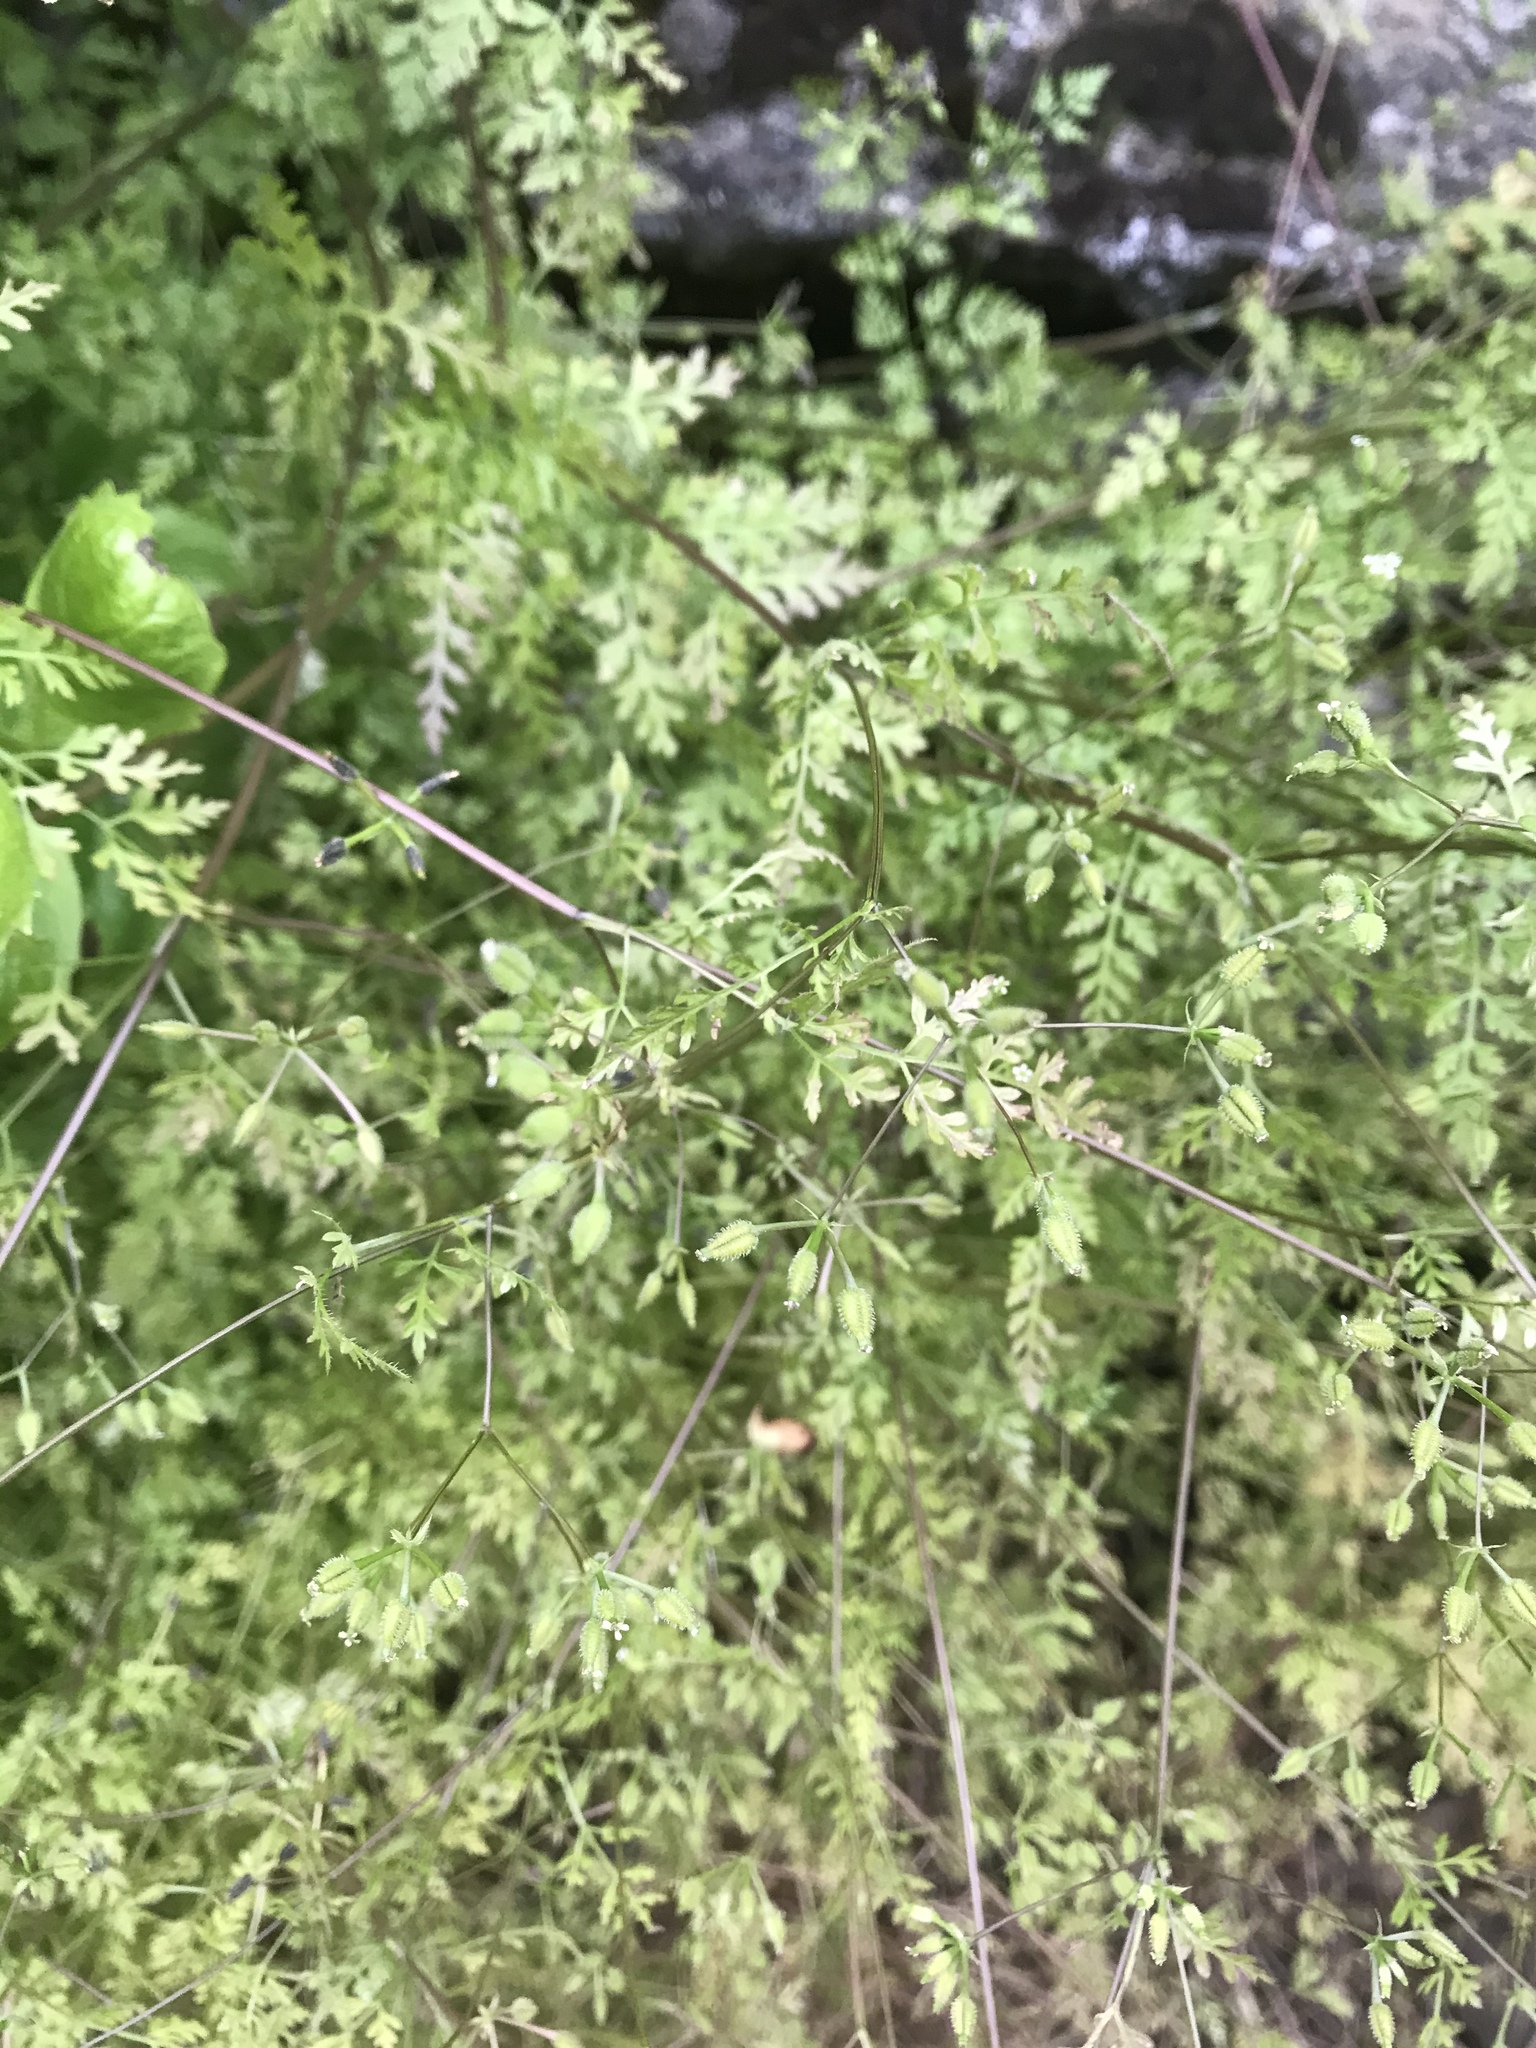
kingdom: Plantae
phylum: Tracheophyta
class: Magnoliopsida
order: Apiales
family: Apiaceae
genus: Anthriscus
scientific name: Anthriscus caucalis
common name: Bur chervil
